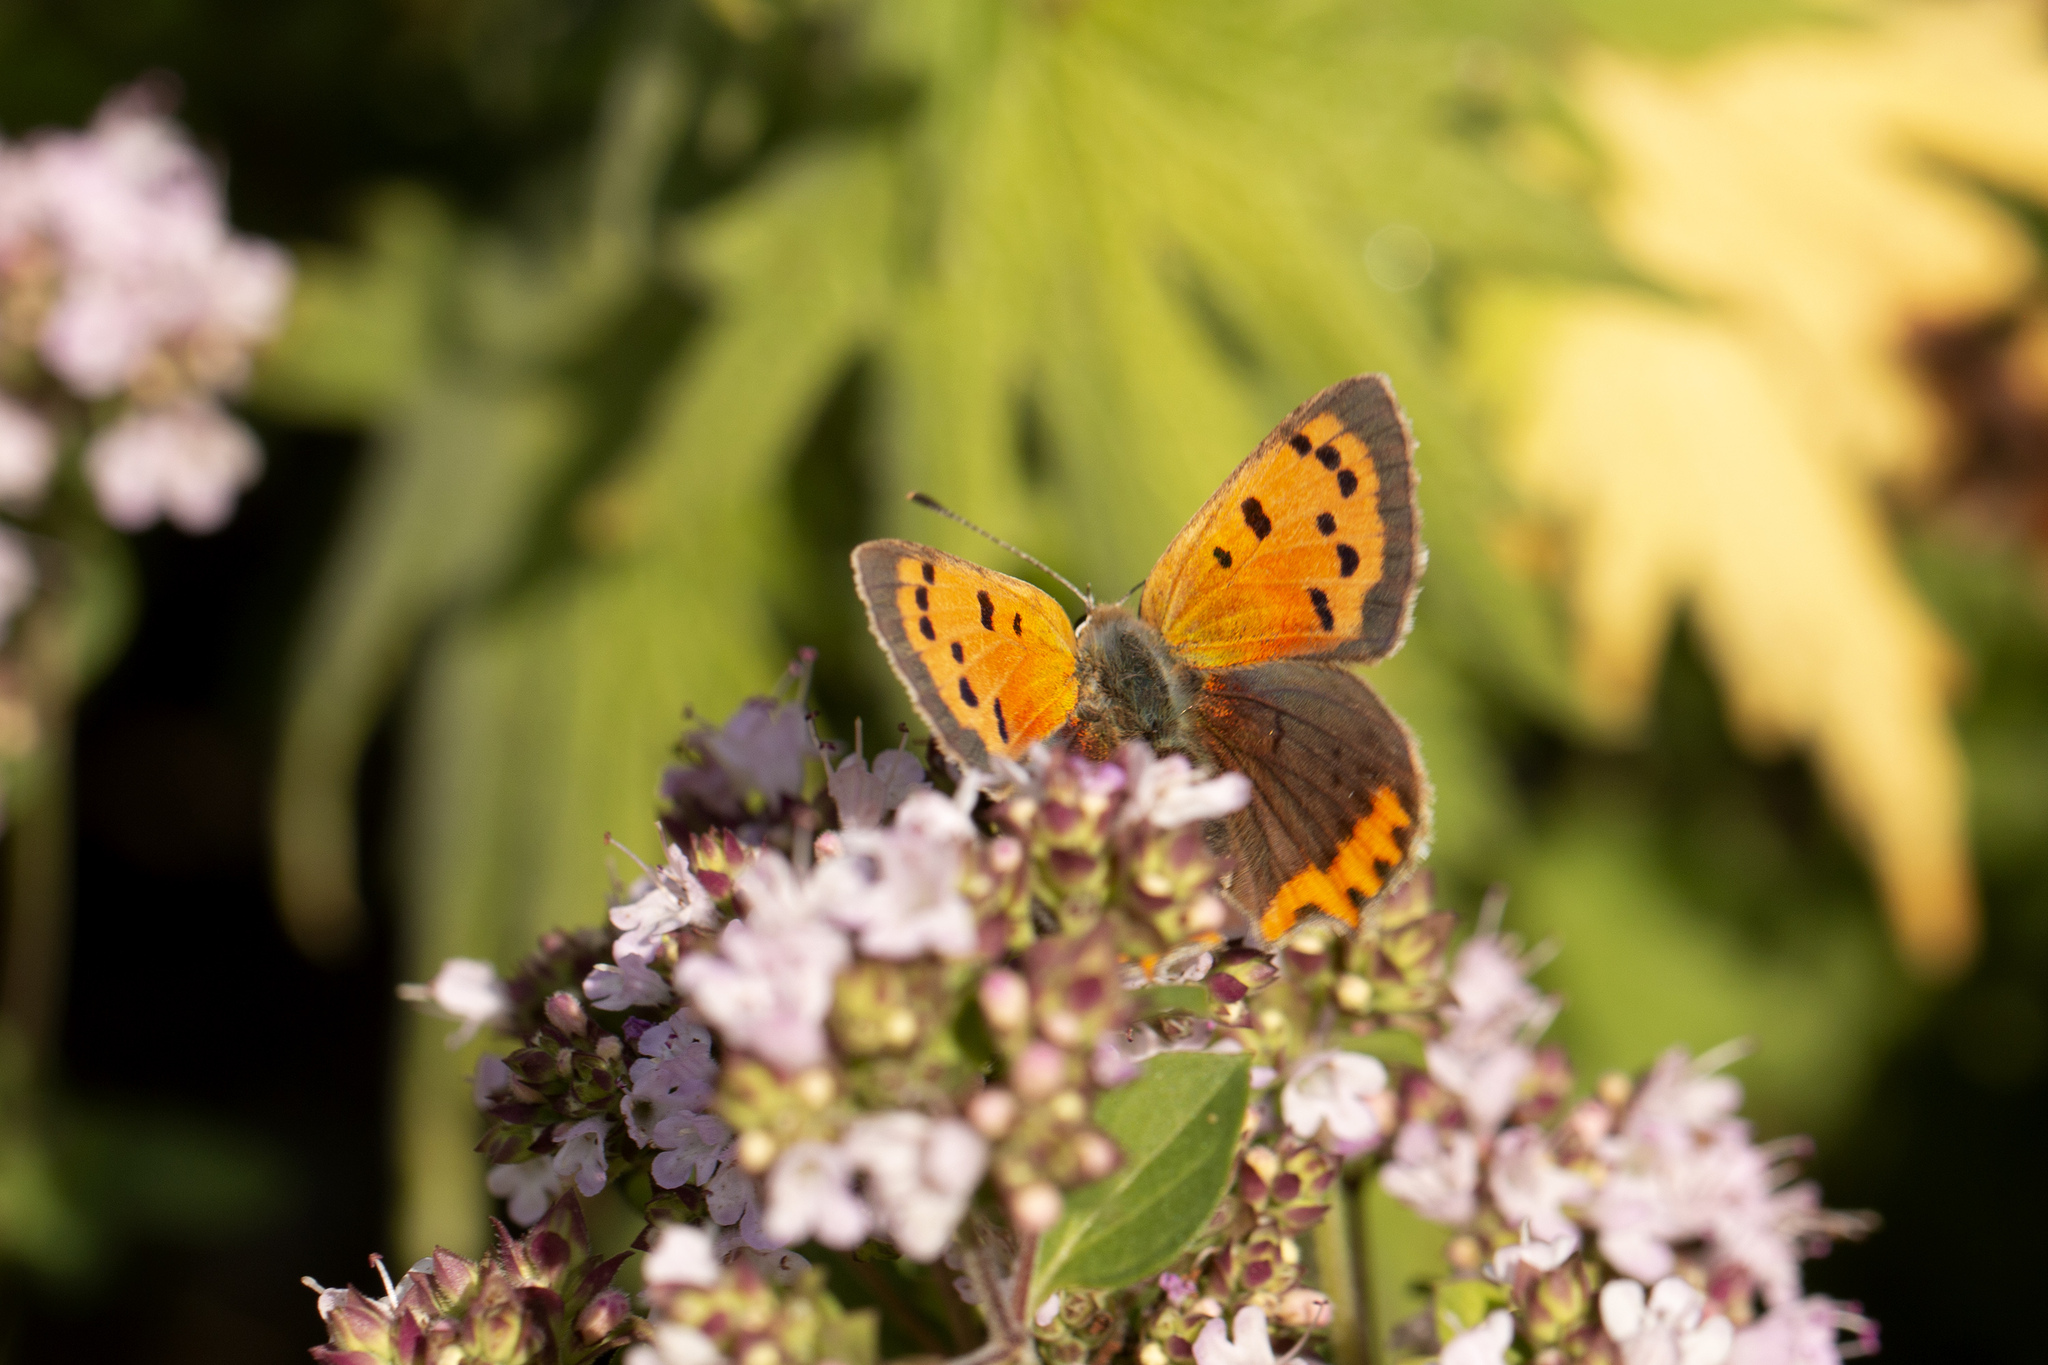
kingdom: Animalia
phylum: Arthropoda
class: Insecta
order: Lepidoptera
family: Lycaenidae
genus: Lycaena
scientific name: Lycaena phlaeas
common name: Small copper
